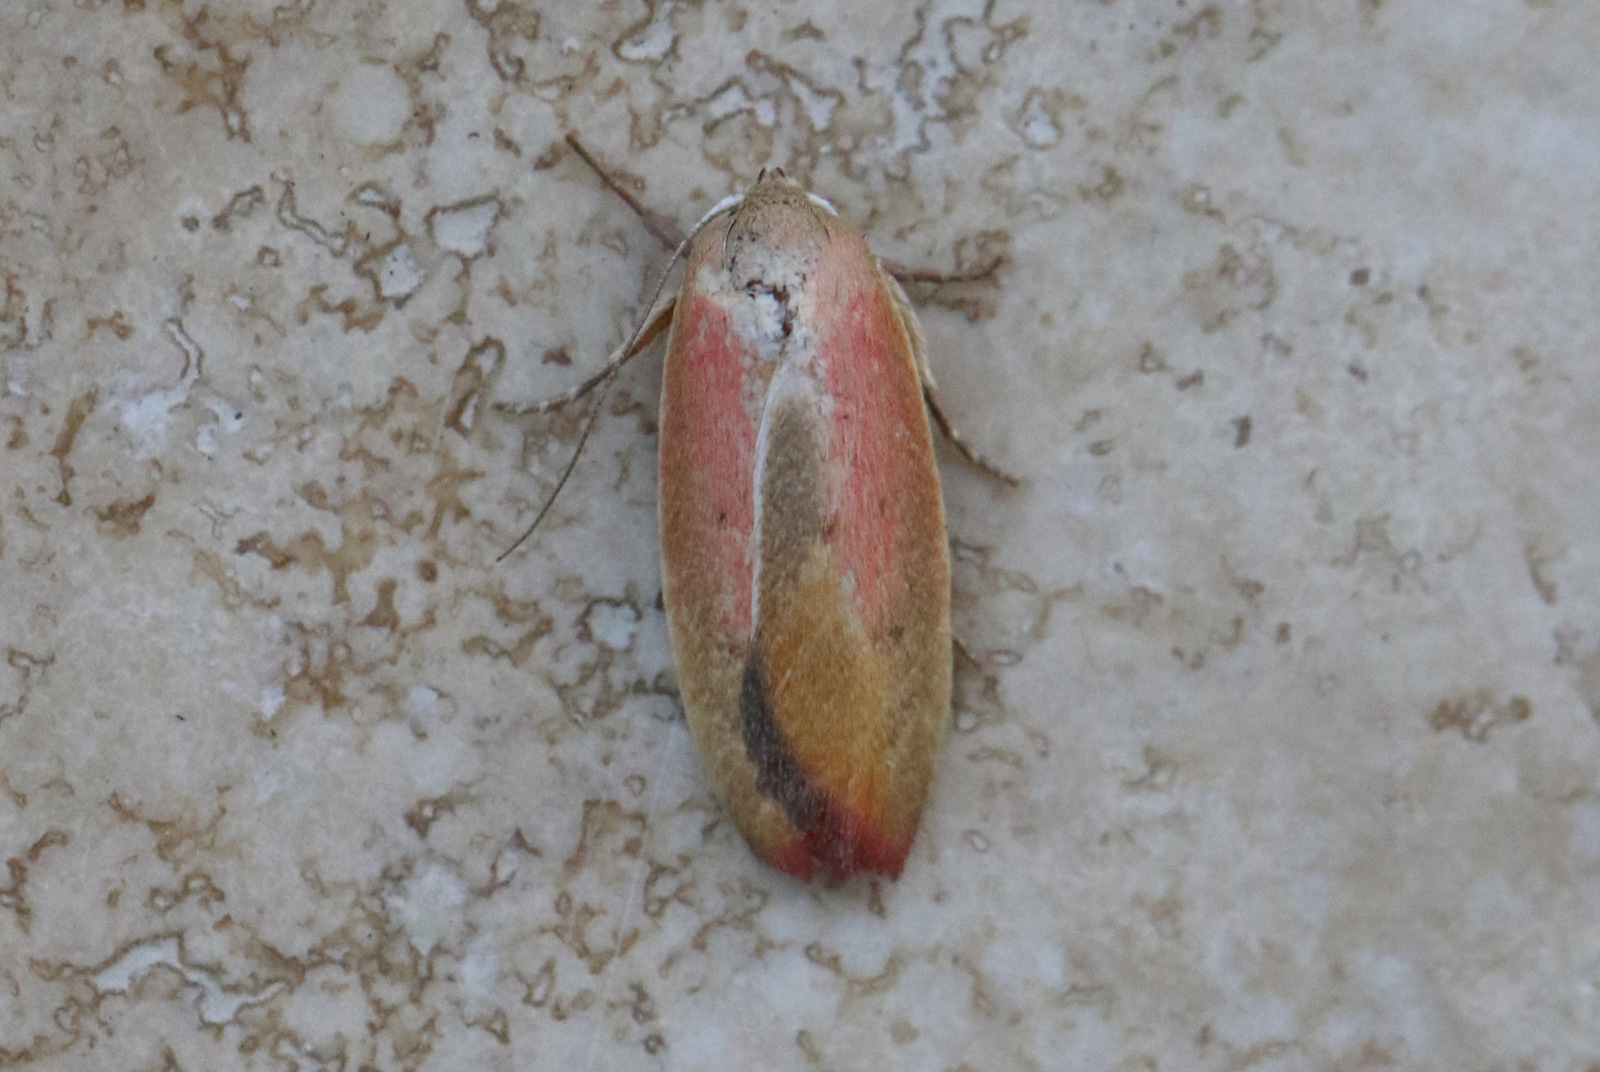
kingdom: Animalia
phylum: Arthropoda
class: Insecta
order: Lepidoptera
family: Oecophoridae
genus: Ptyoptila
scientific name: Ptyoptila matutinella
